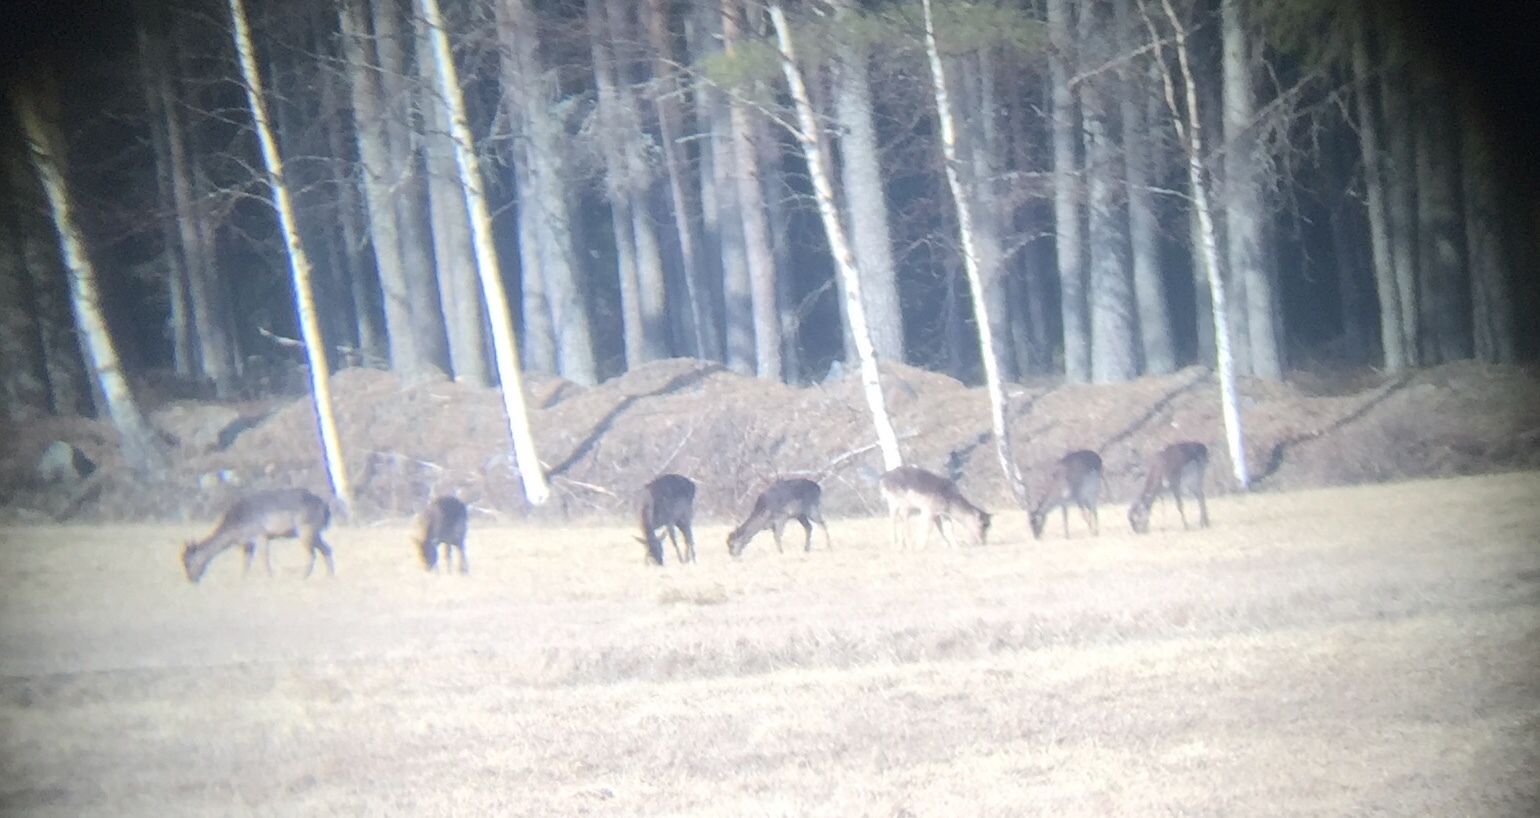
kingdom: Animalia
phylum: Chordata
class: Mammalia
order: Artiodactyla
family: Cervidae
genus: Dama
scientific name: Dama dama
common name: Fallow deer
